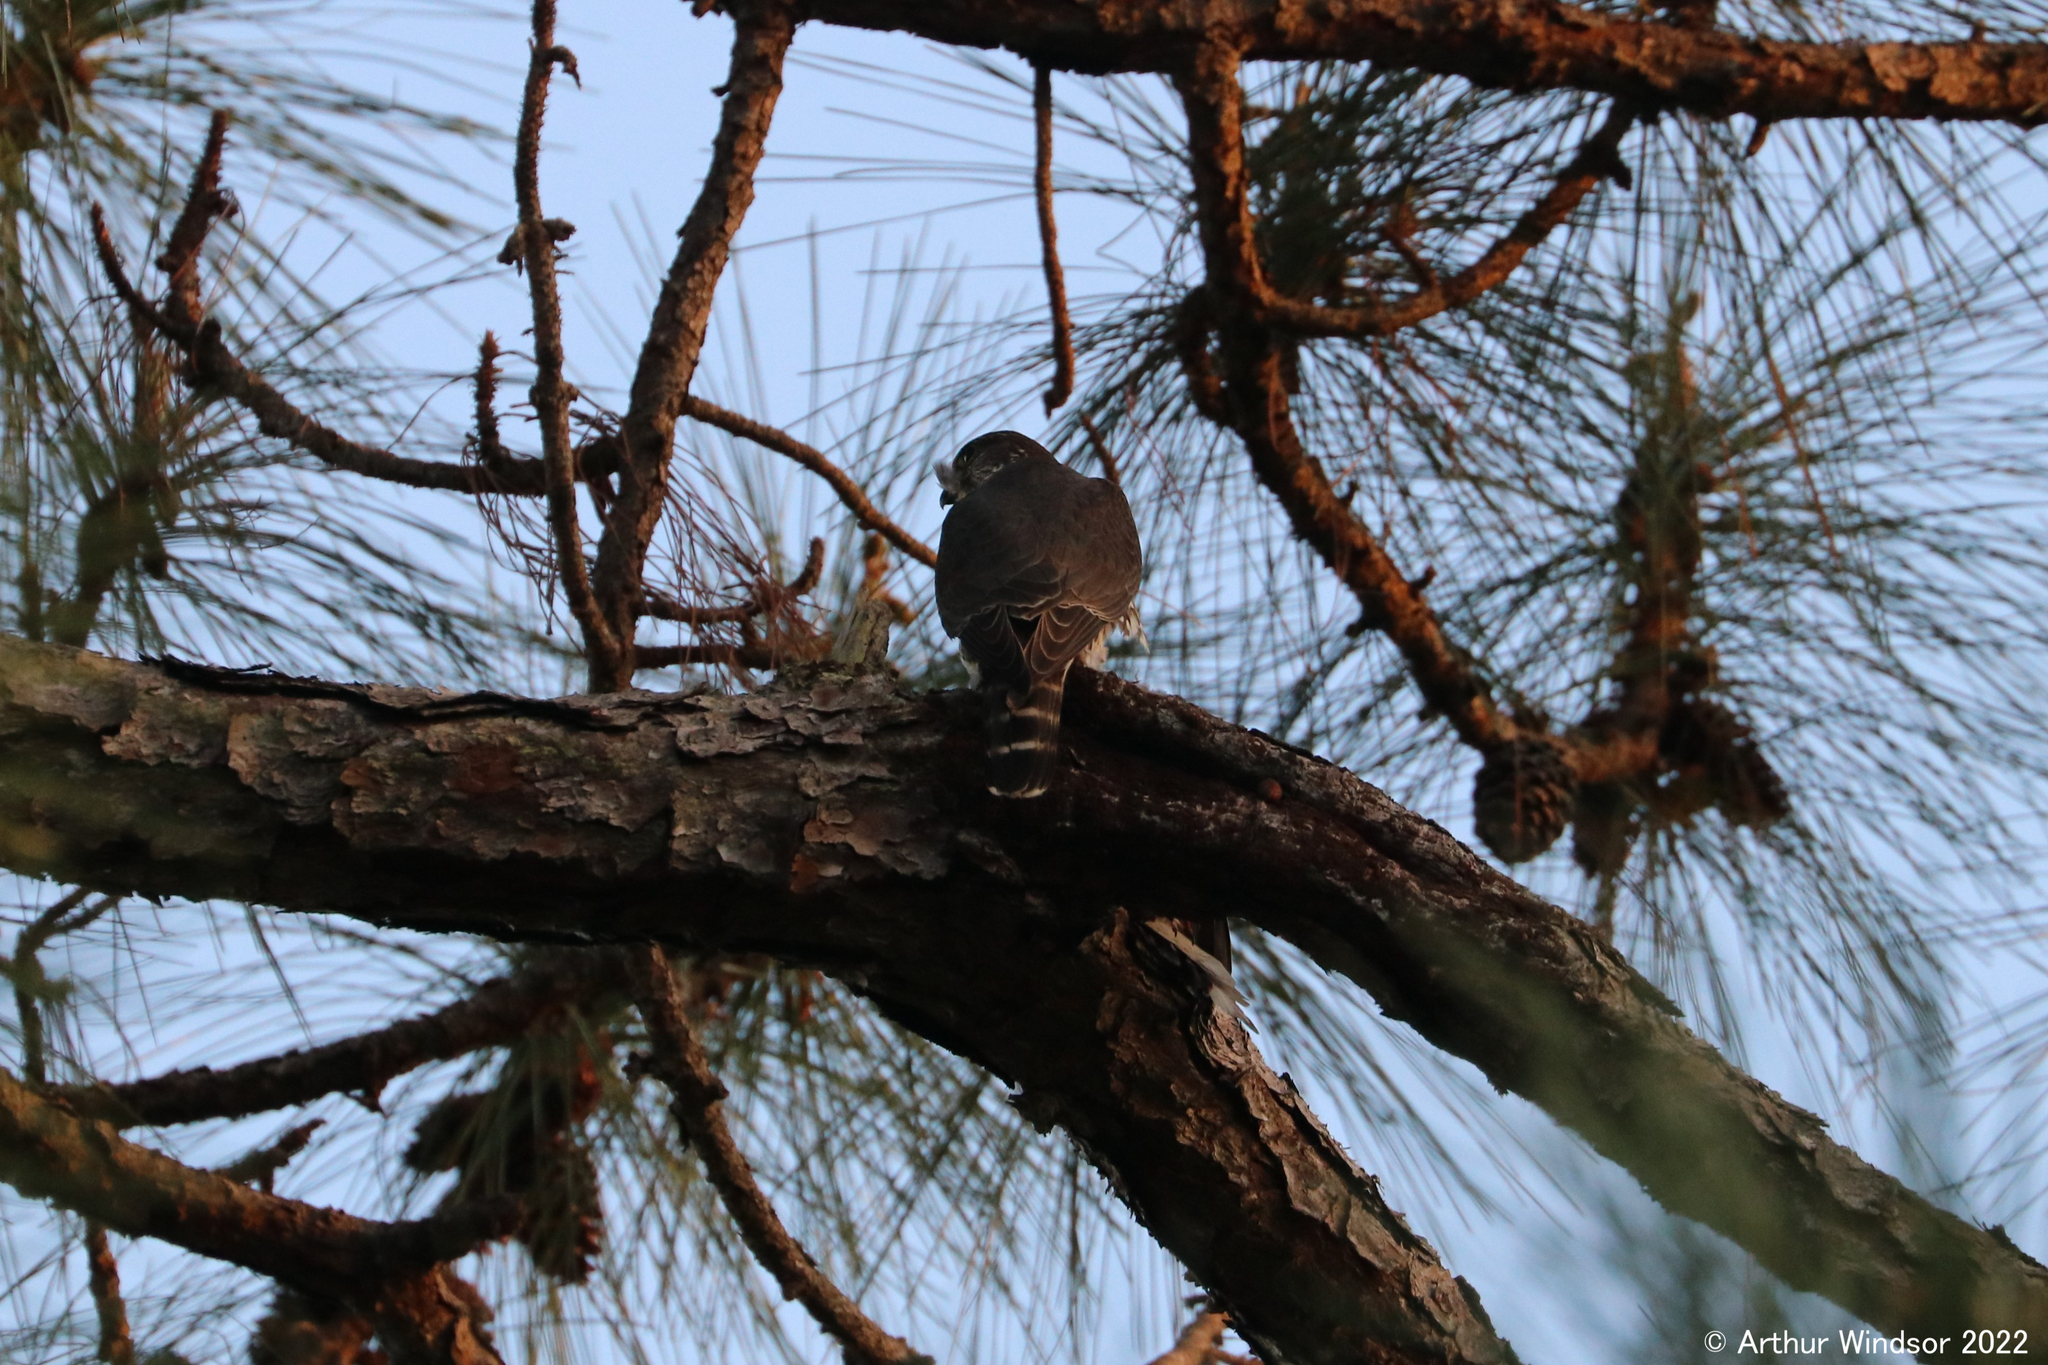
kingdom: Animalia
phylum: Chordata
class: Aves
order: Falconiformes
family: Falconidae
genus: Falco
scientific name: Falco columbarius
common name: Merlin
